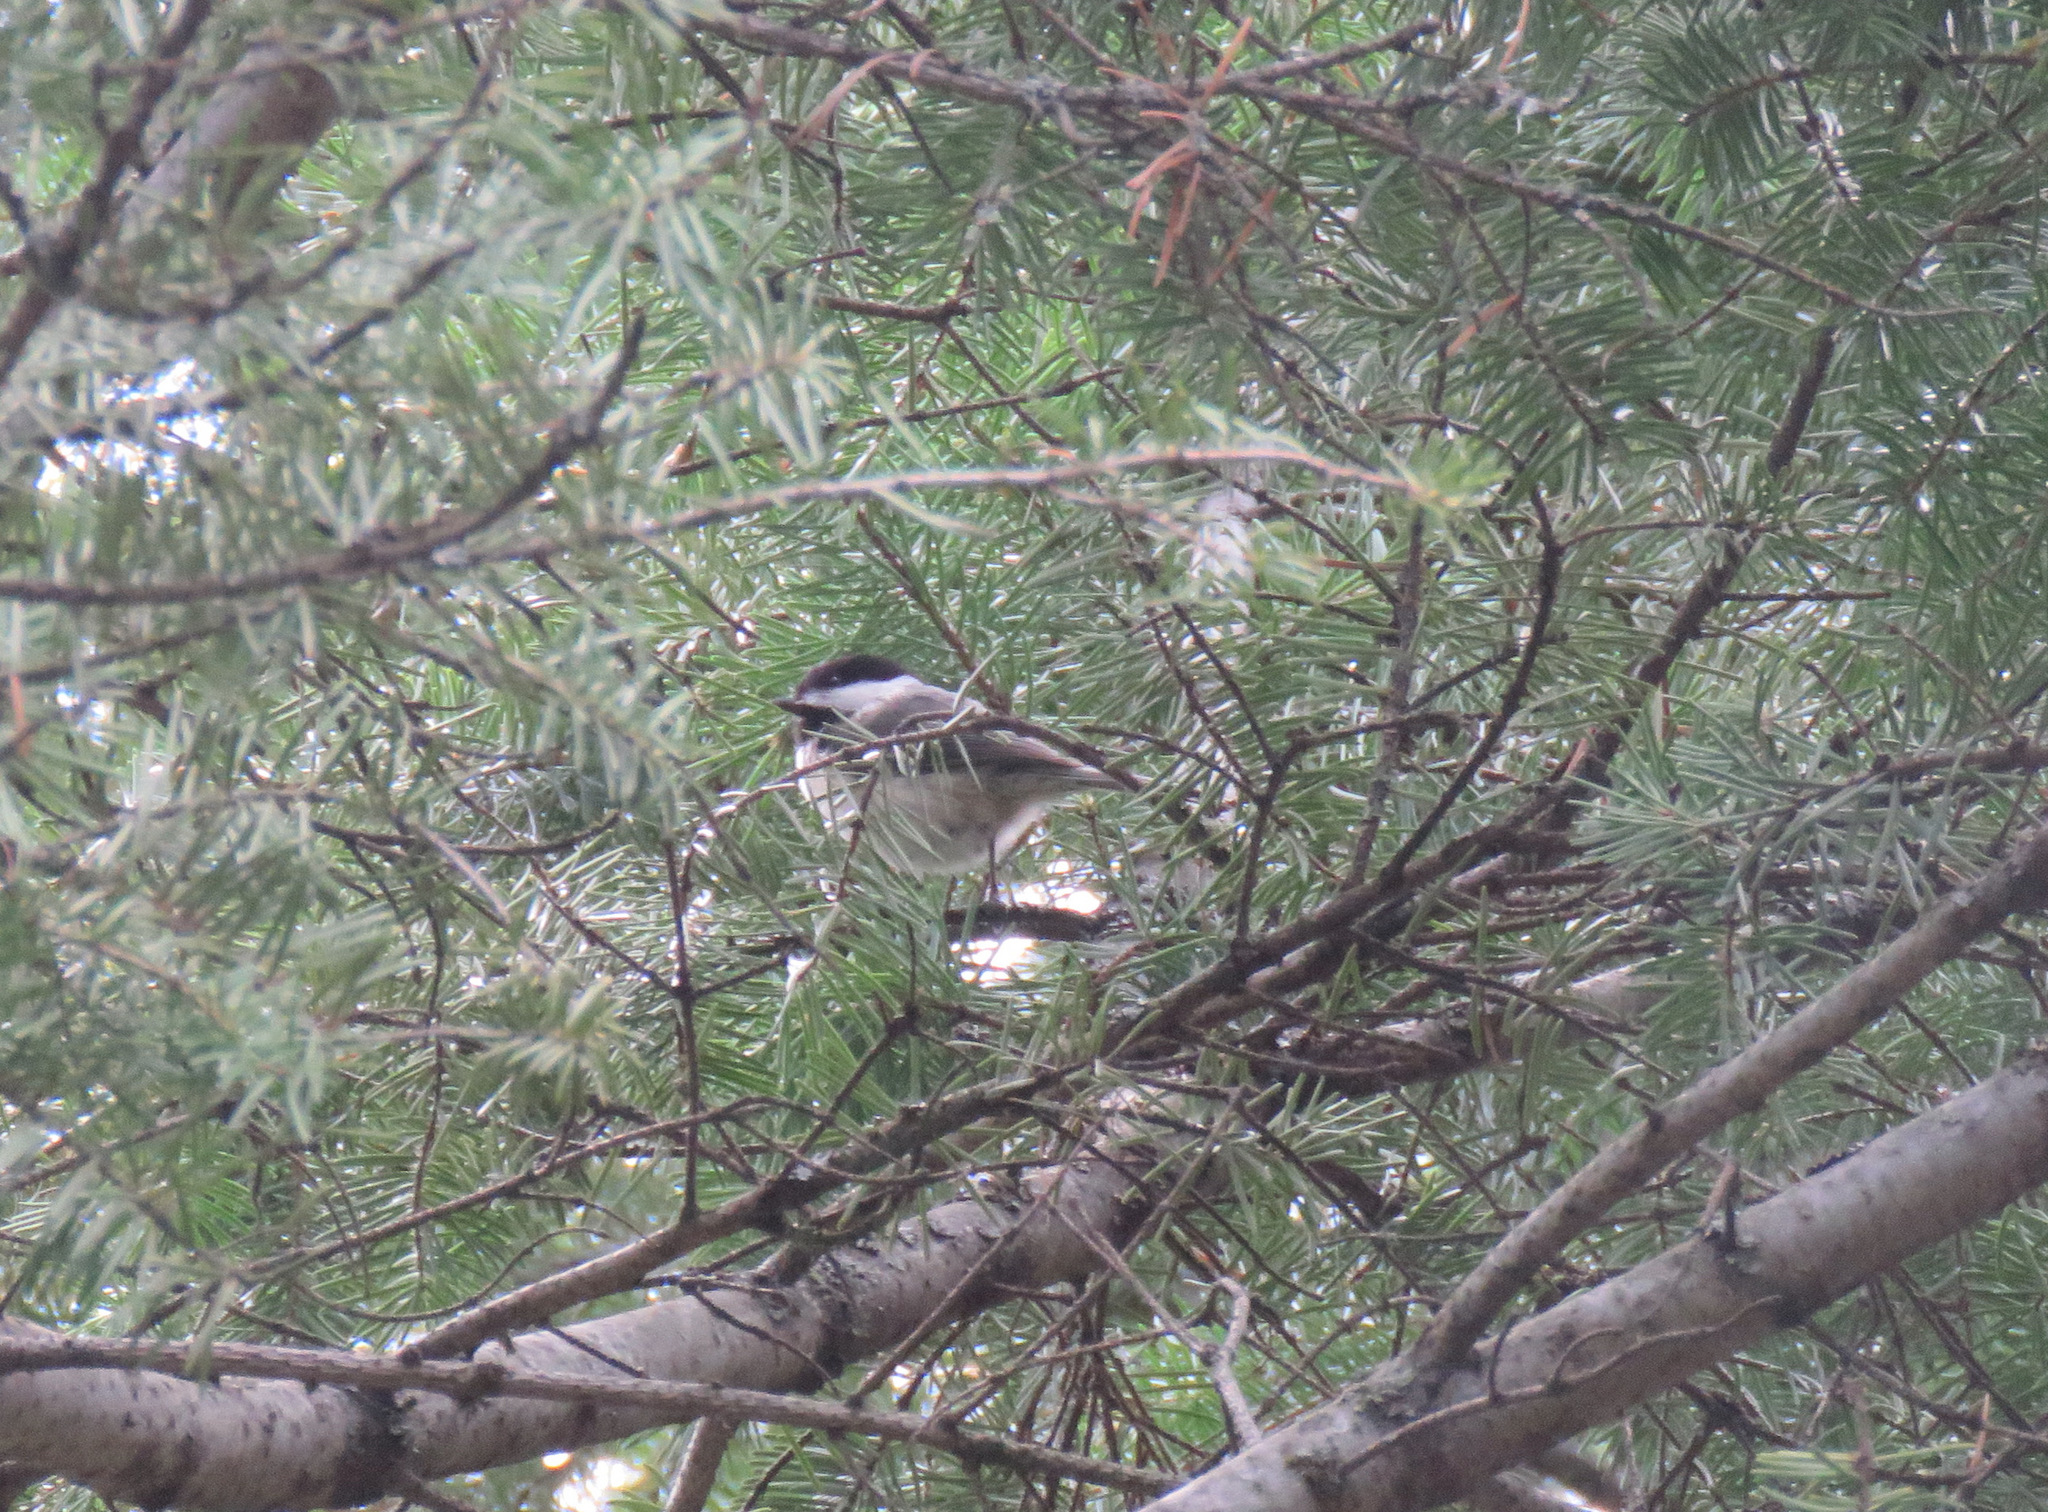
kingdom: Animalia
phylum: Chordata
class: Aves
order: Passeriformes
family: Paridae
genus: Poecile
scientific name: Poecile atricapillus
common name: Black-capped chickadee
